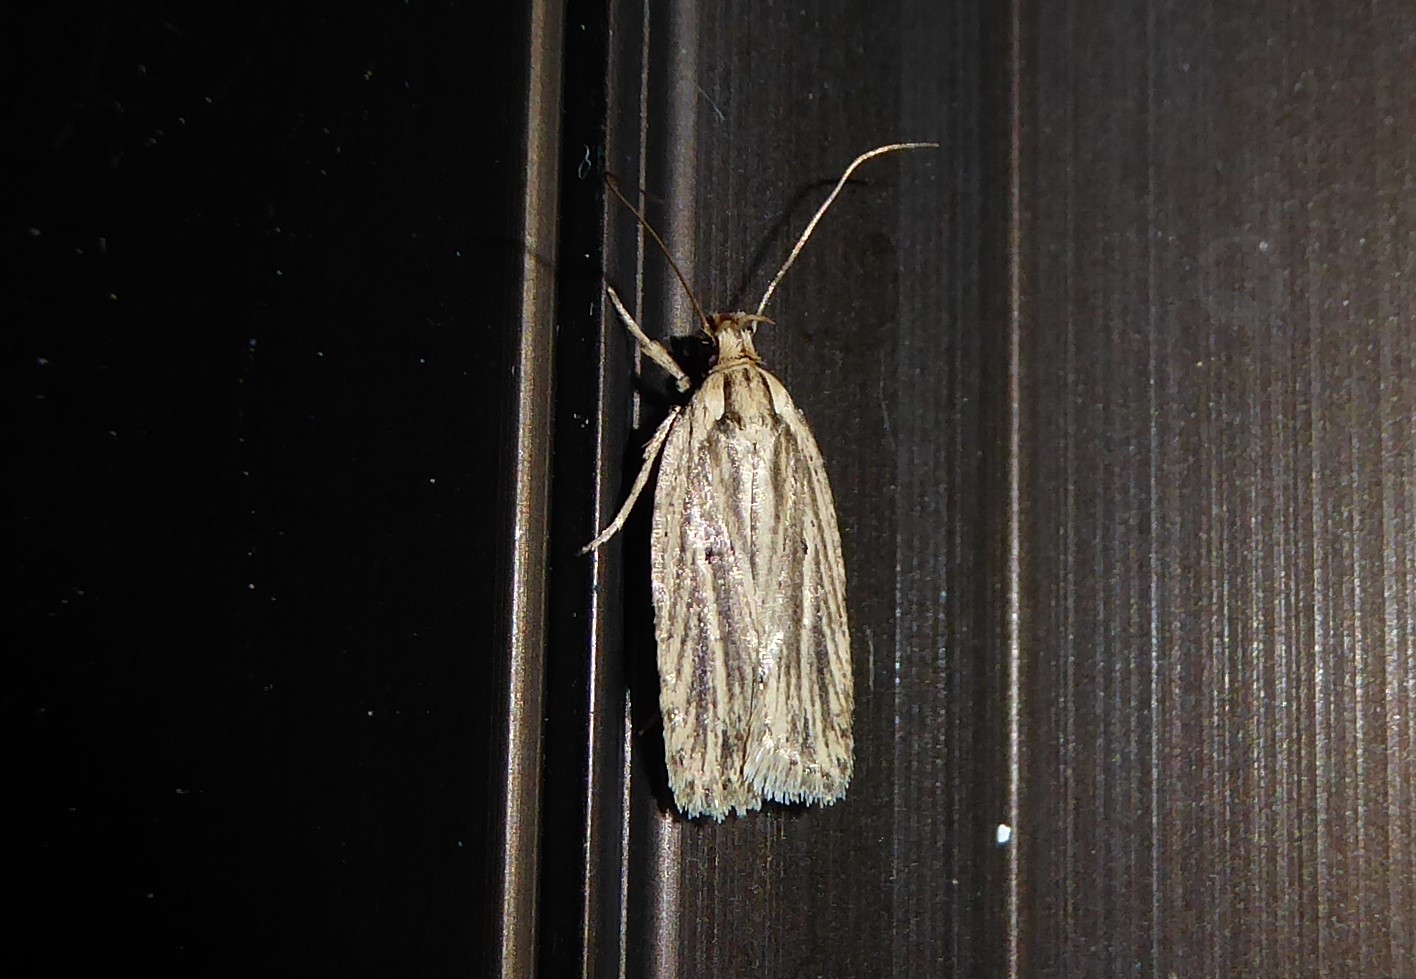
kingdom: Animalia
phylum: Arthropoda
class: Insecta
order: Lepidoptera
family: Depressariidae
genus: Agonopterix
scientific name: Agonopterix
